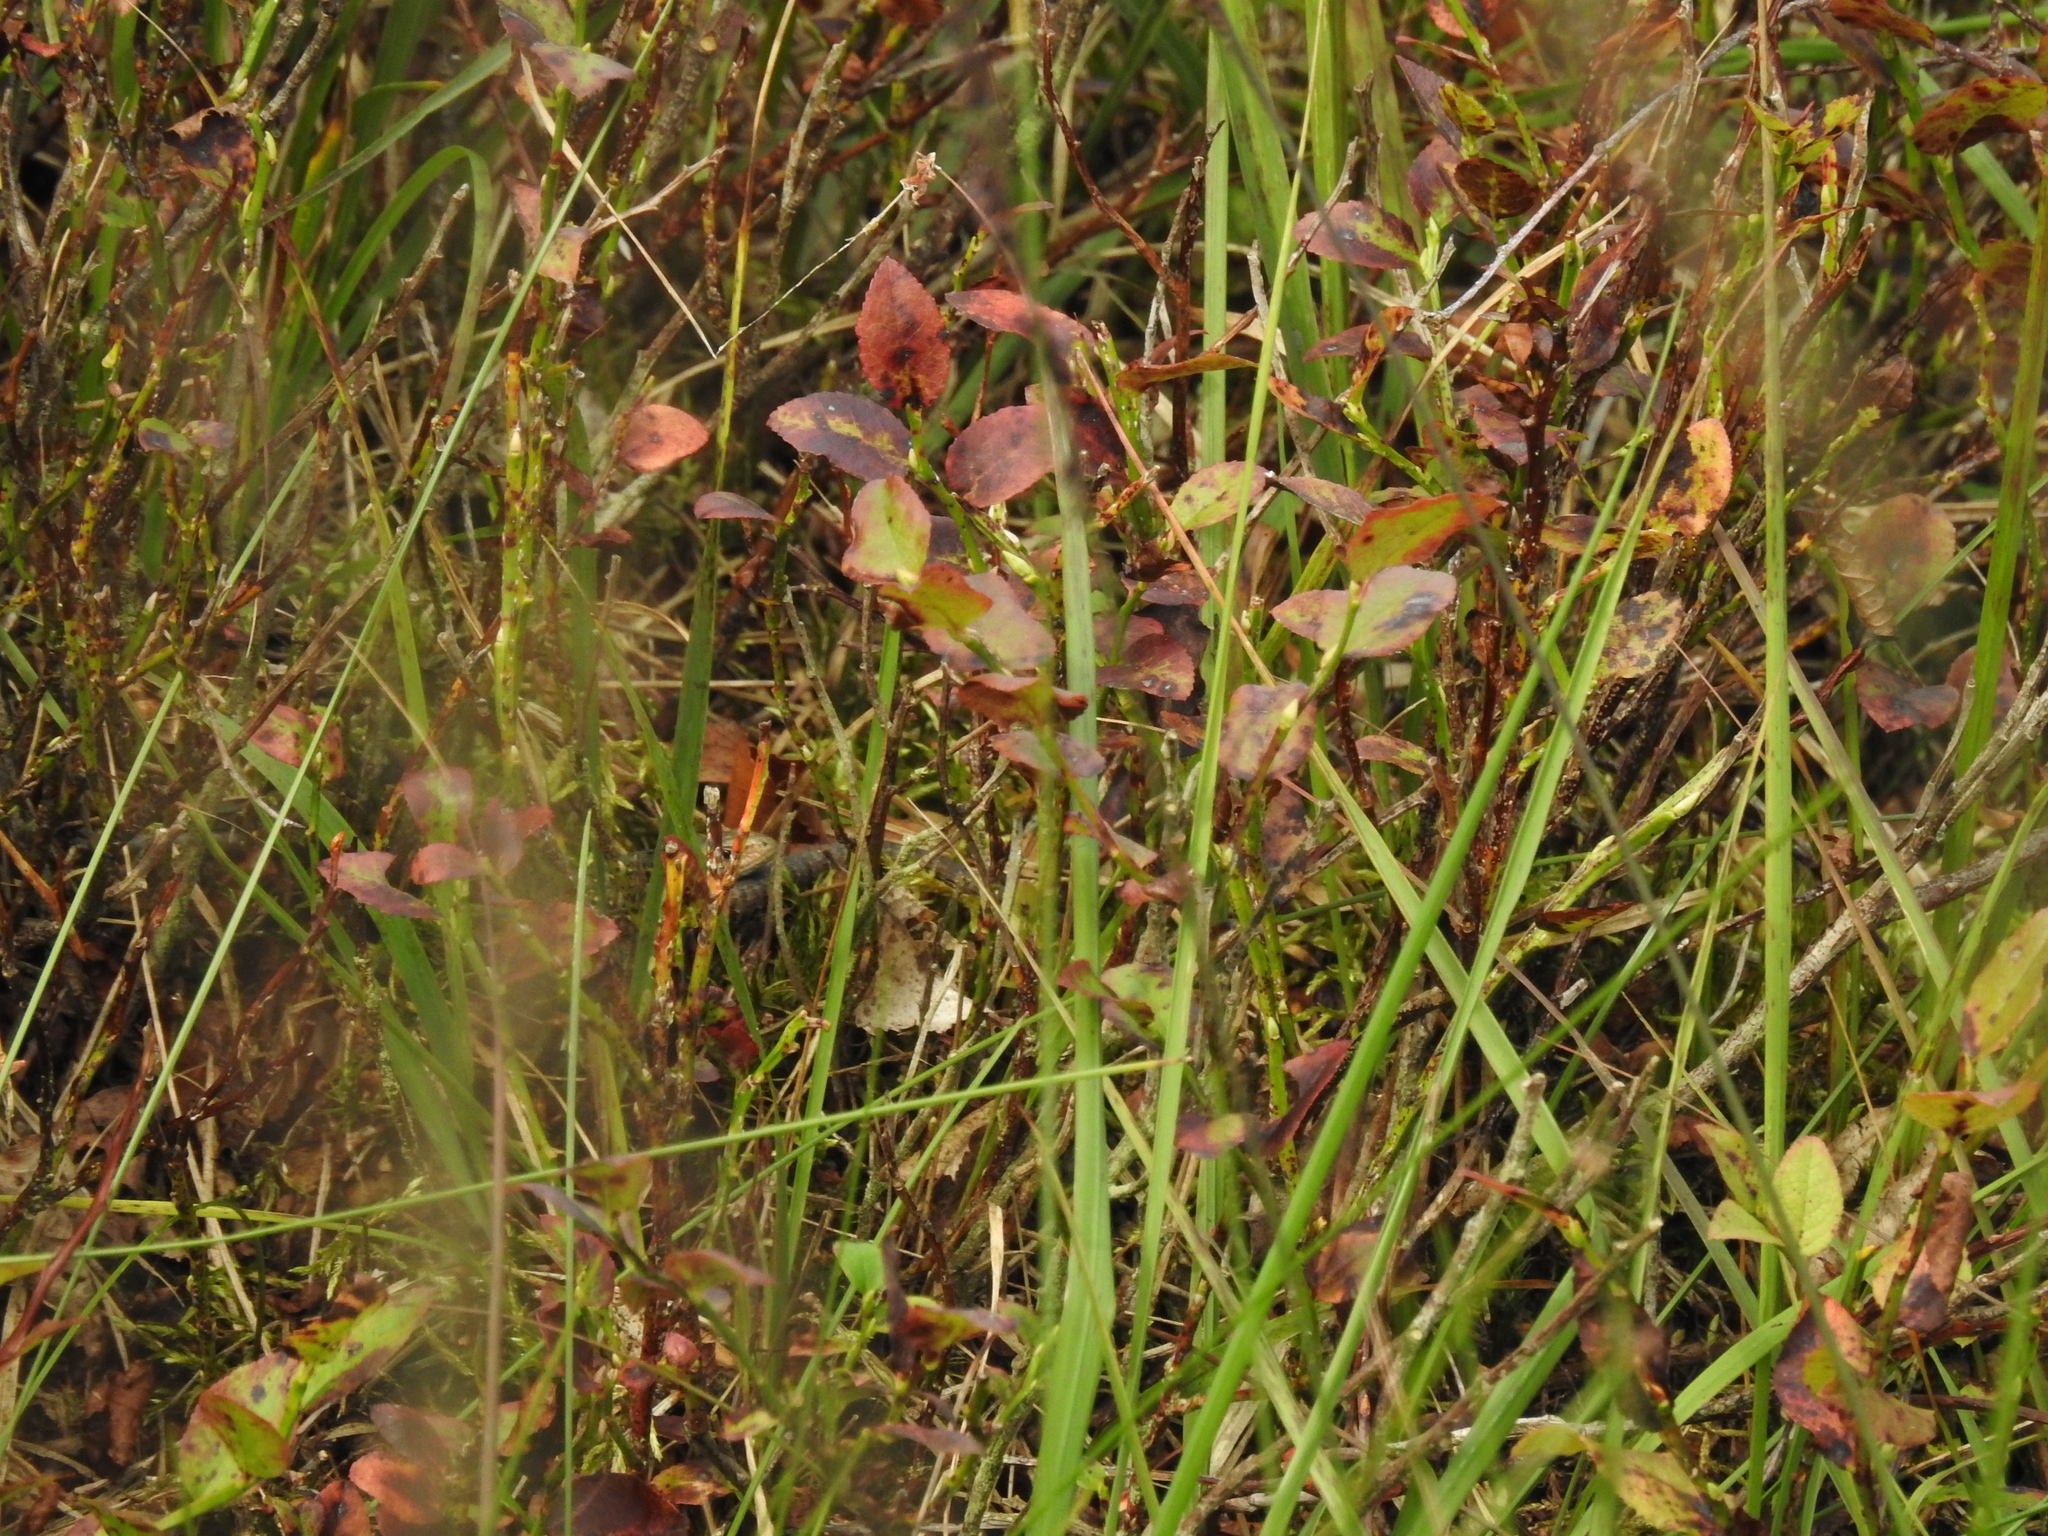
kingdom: Plantae
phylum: Tracheophyta
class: Magnoliopsida
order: Ericales
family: Ericaceae
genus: Vaccinium
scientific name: Vaccinium myrtillus
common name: Bilberry
